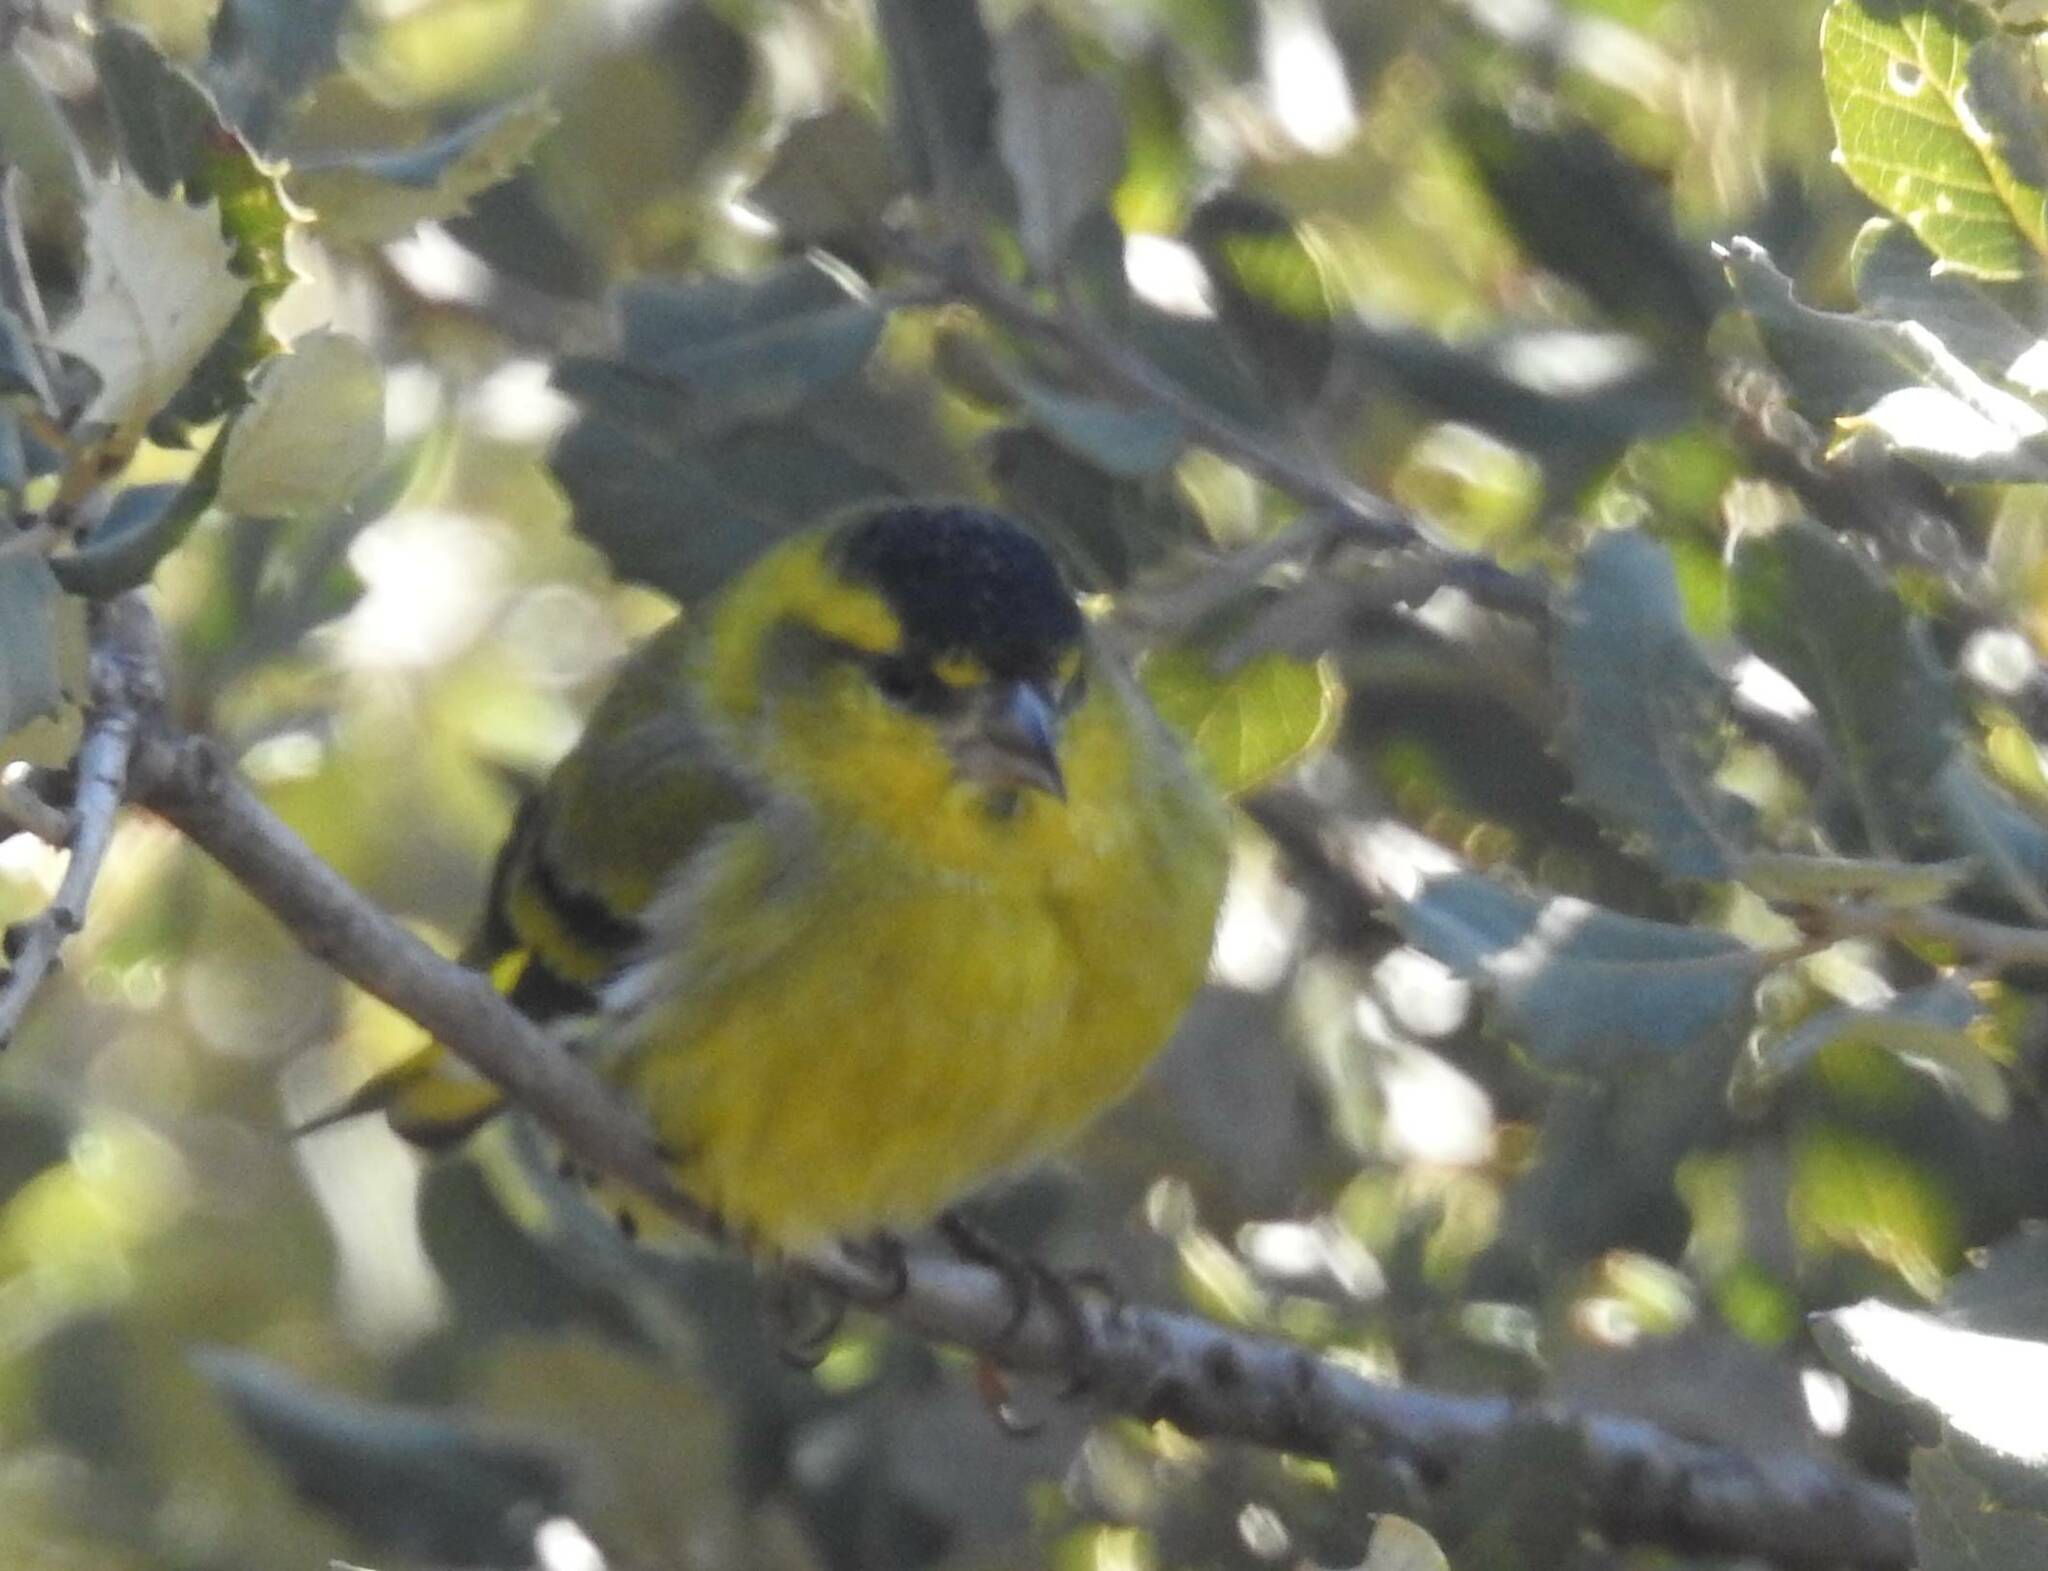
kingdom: Animalia
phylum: Chordata
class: Aves
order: Passeriformes
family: Fringillidae
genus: Spinus
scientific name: Spinus spinus
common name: Eurasian siskin
